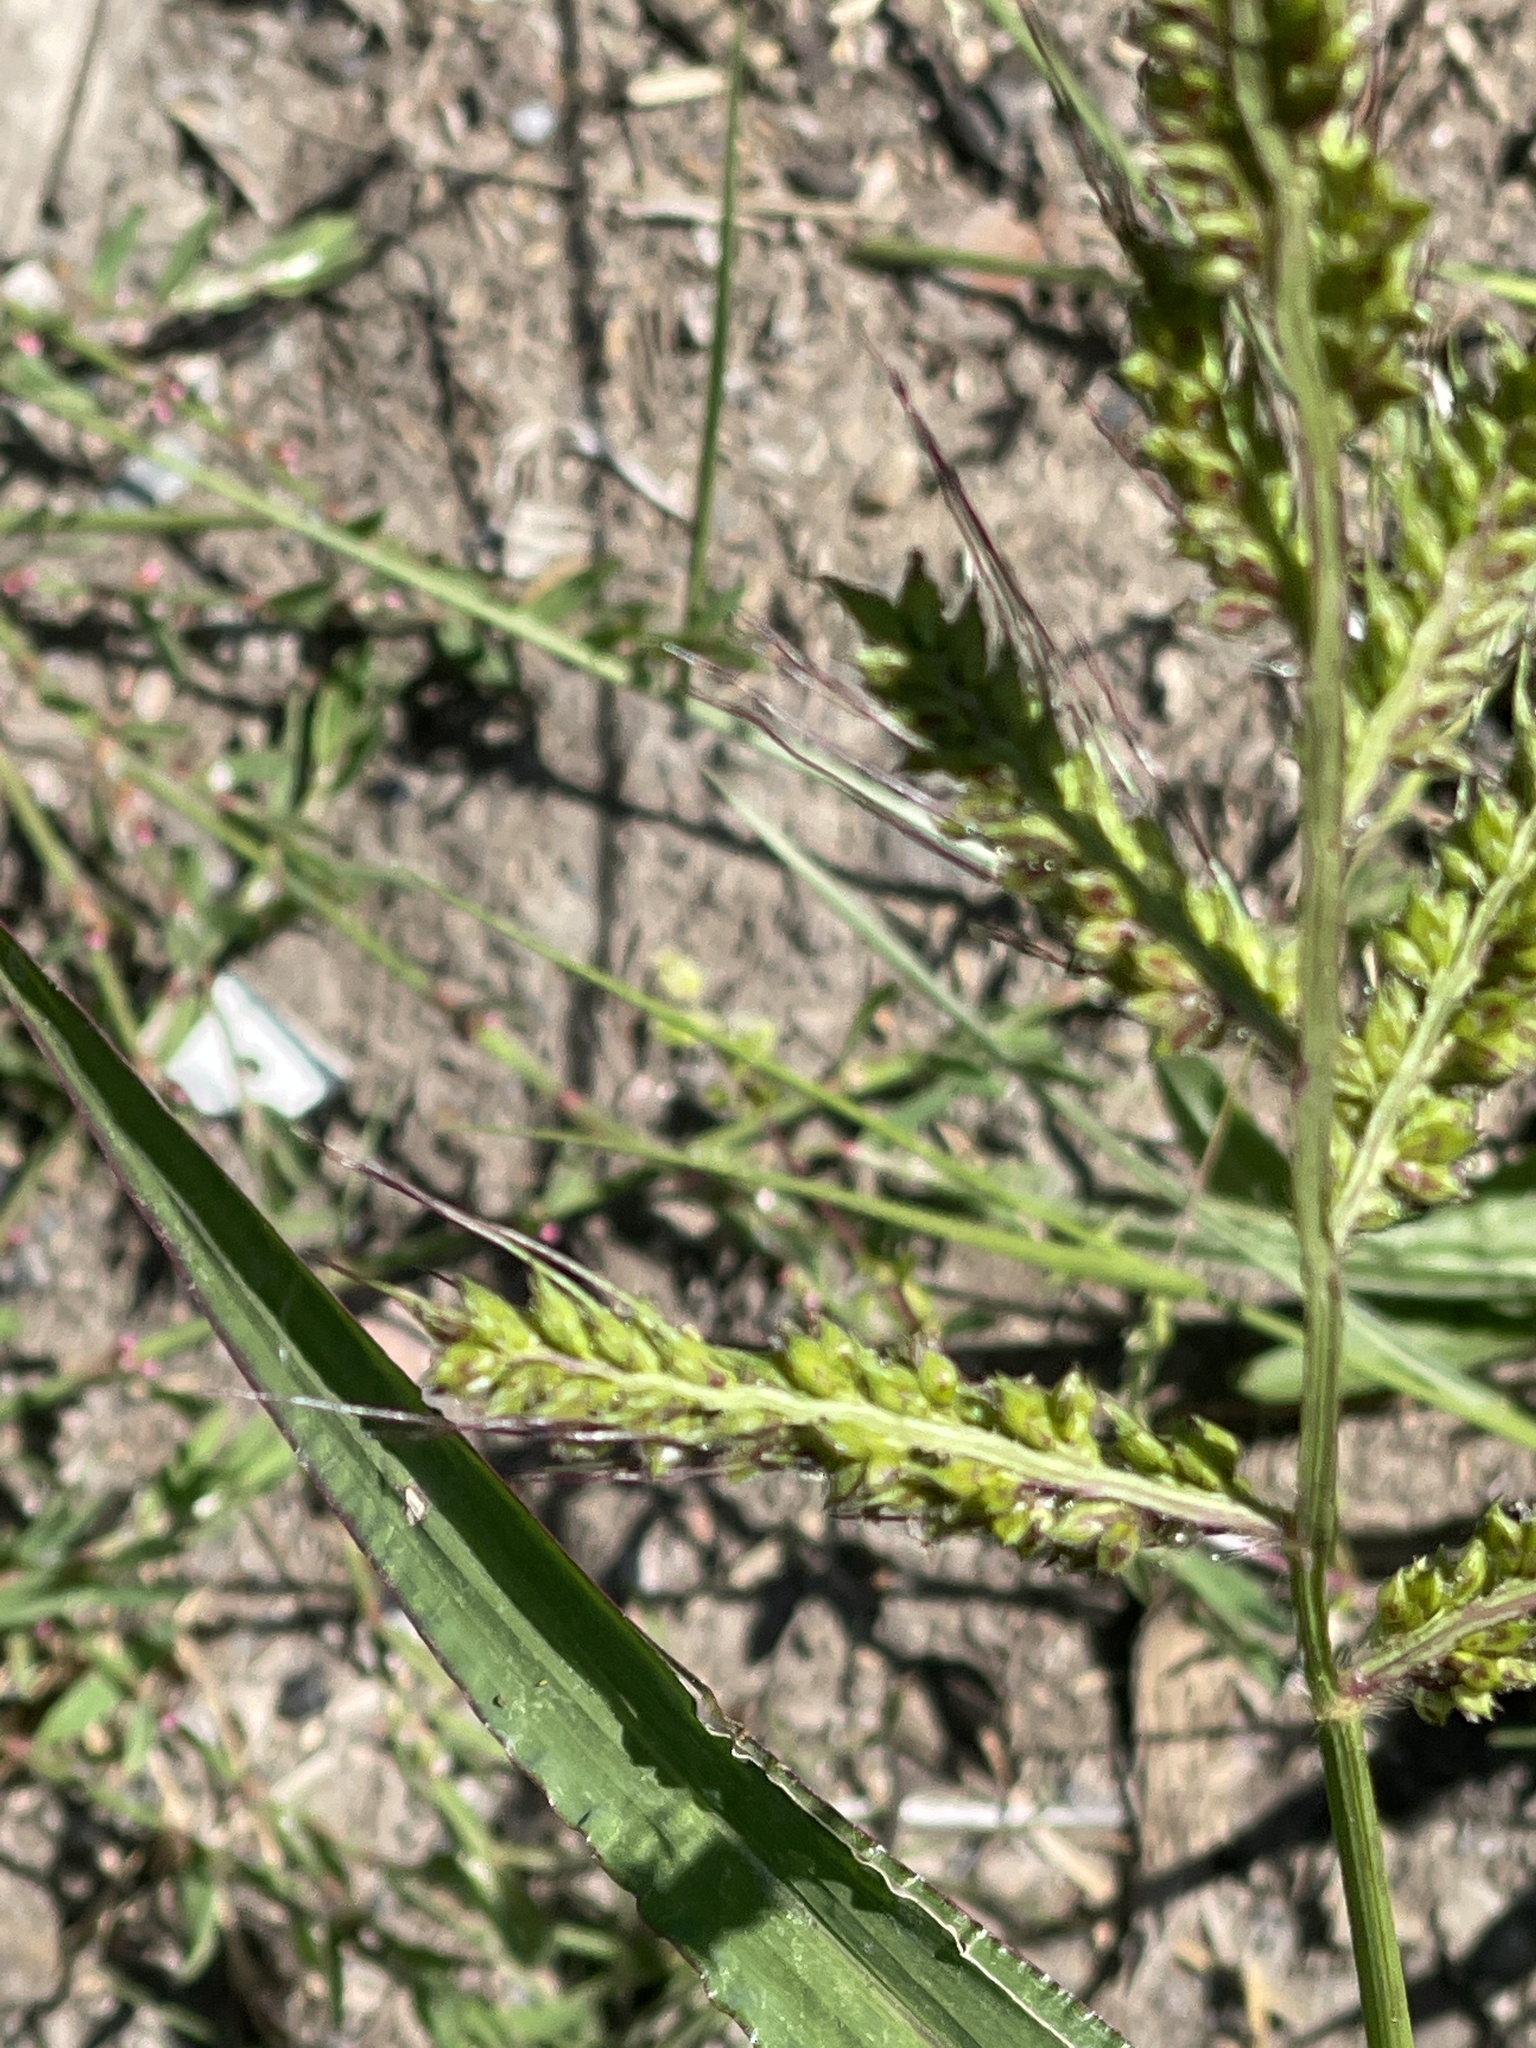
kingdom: Plantae
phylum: Tracheophyta
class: Liliopsida
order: Poales
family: Poaceae
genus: Echinochloa
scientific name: Echinochloa crus-galli
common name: Cockspur
